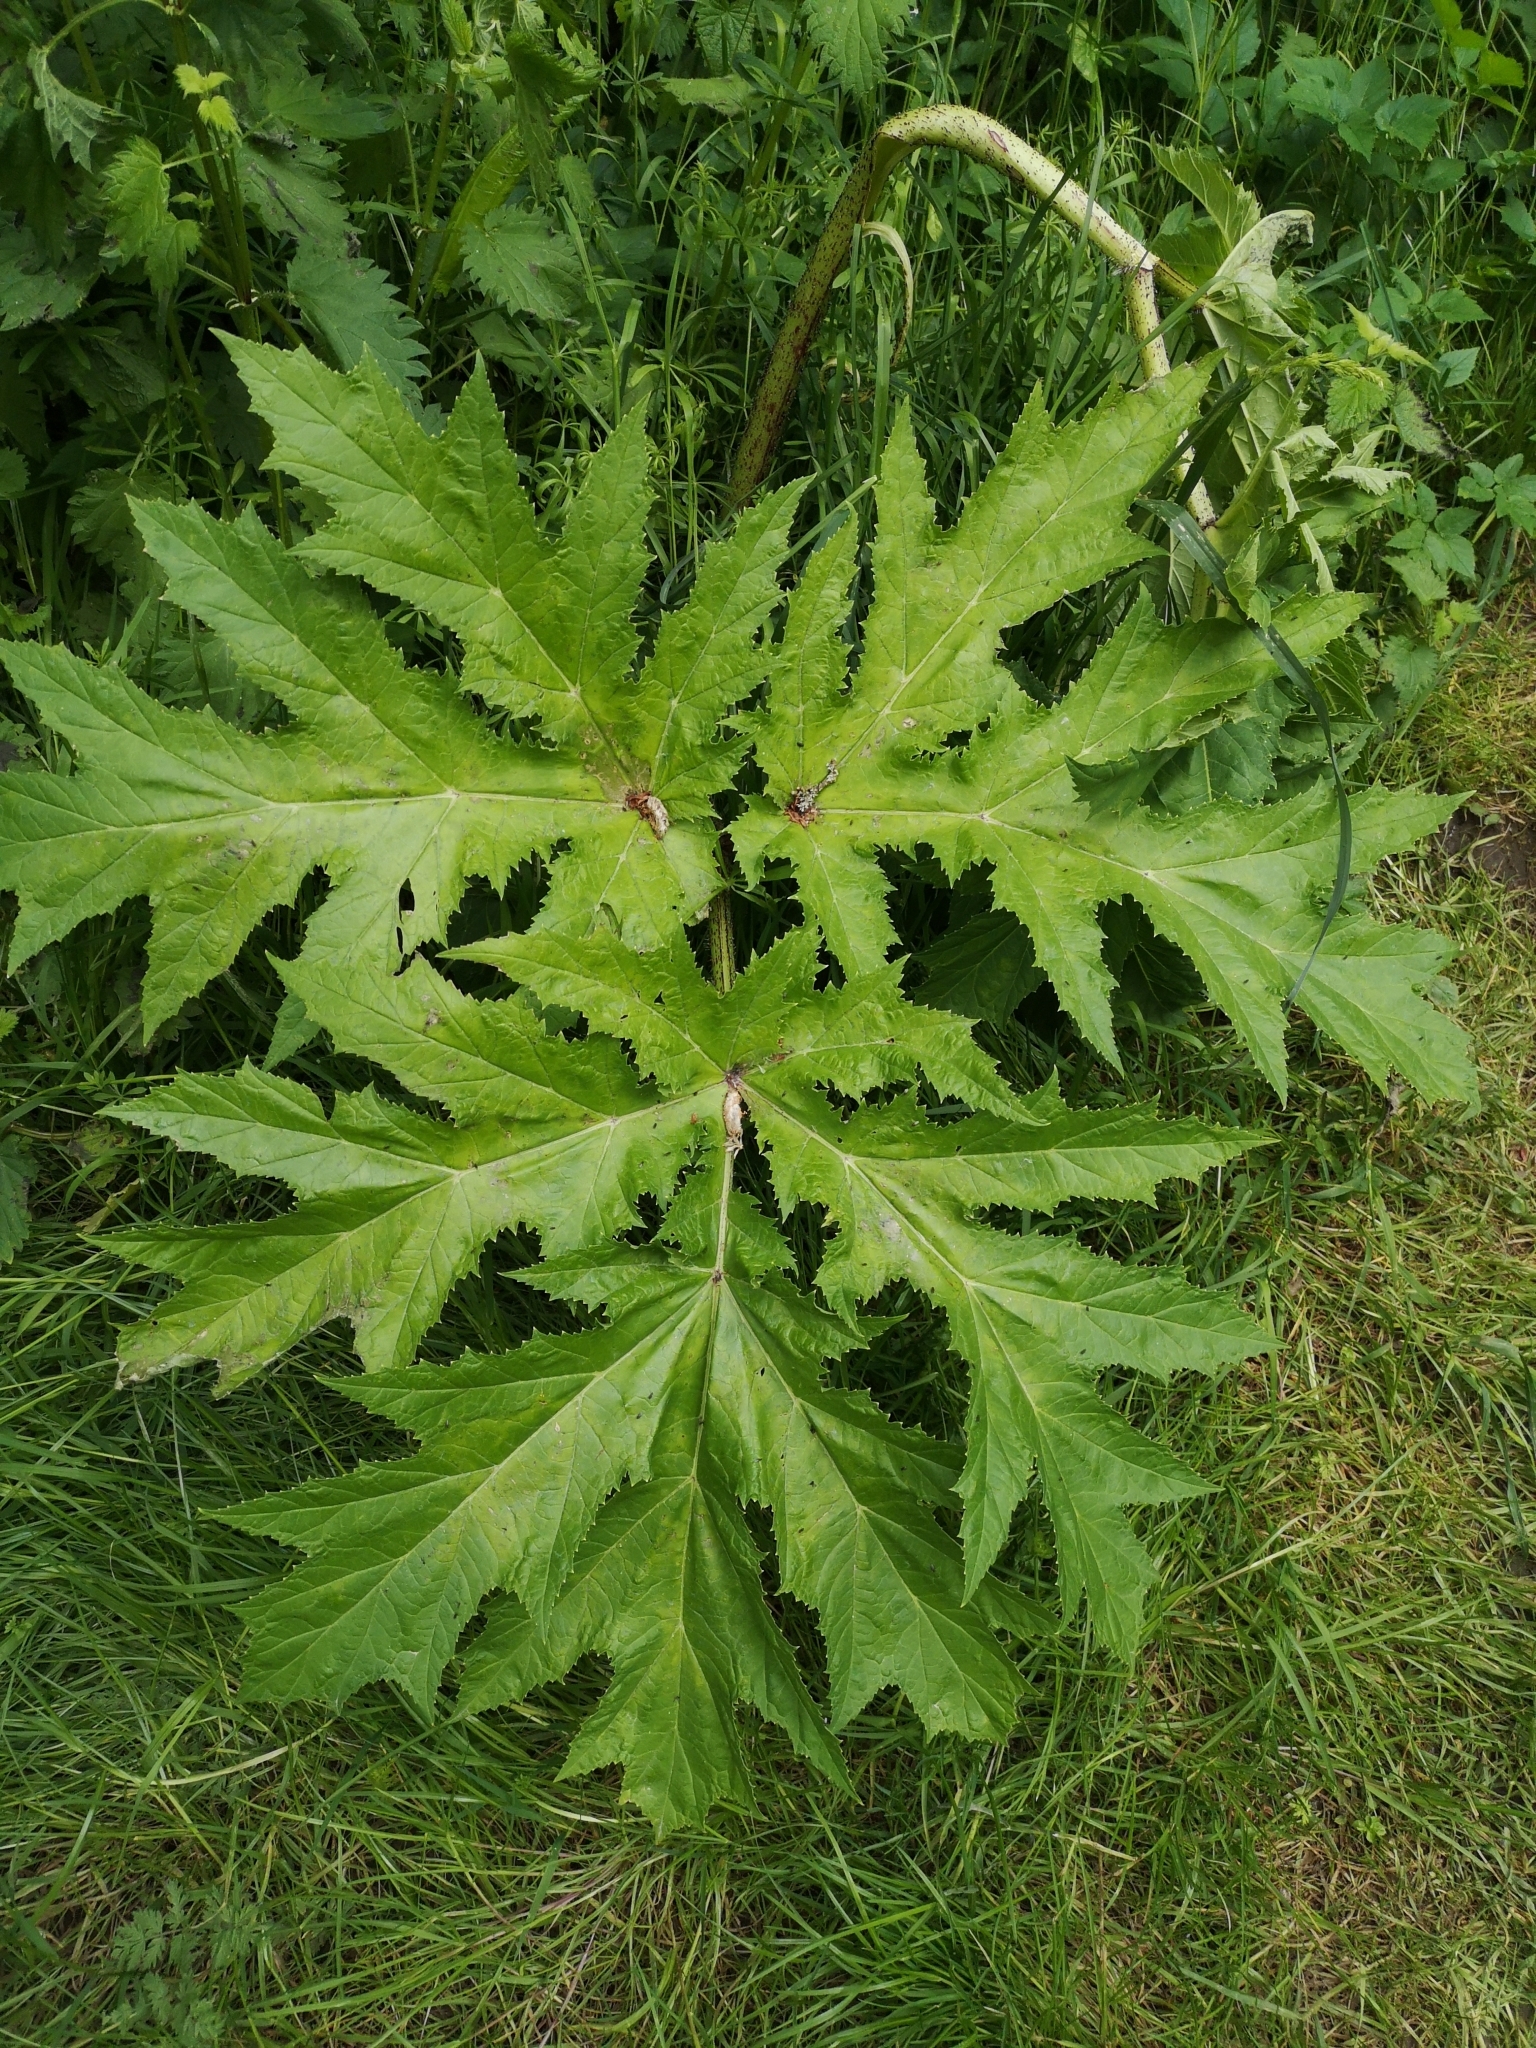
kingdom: Plantae
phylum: Tracheophyta
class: Magnoliopsida
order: Apiales
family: Apiaceae
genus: Heracleum
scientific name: Heracleum mantegazzianum
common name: Giant hogweed
